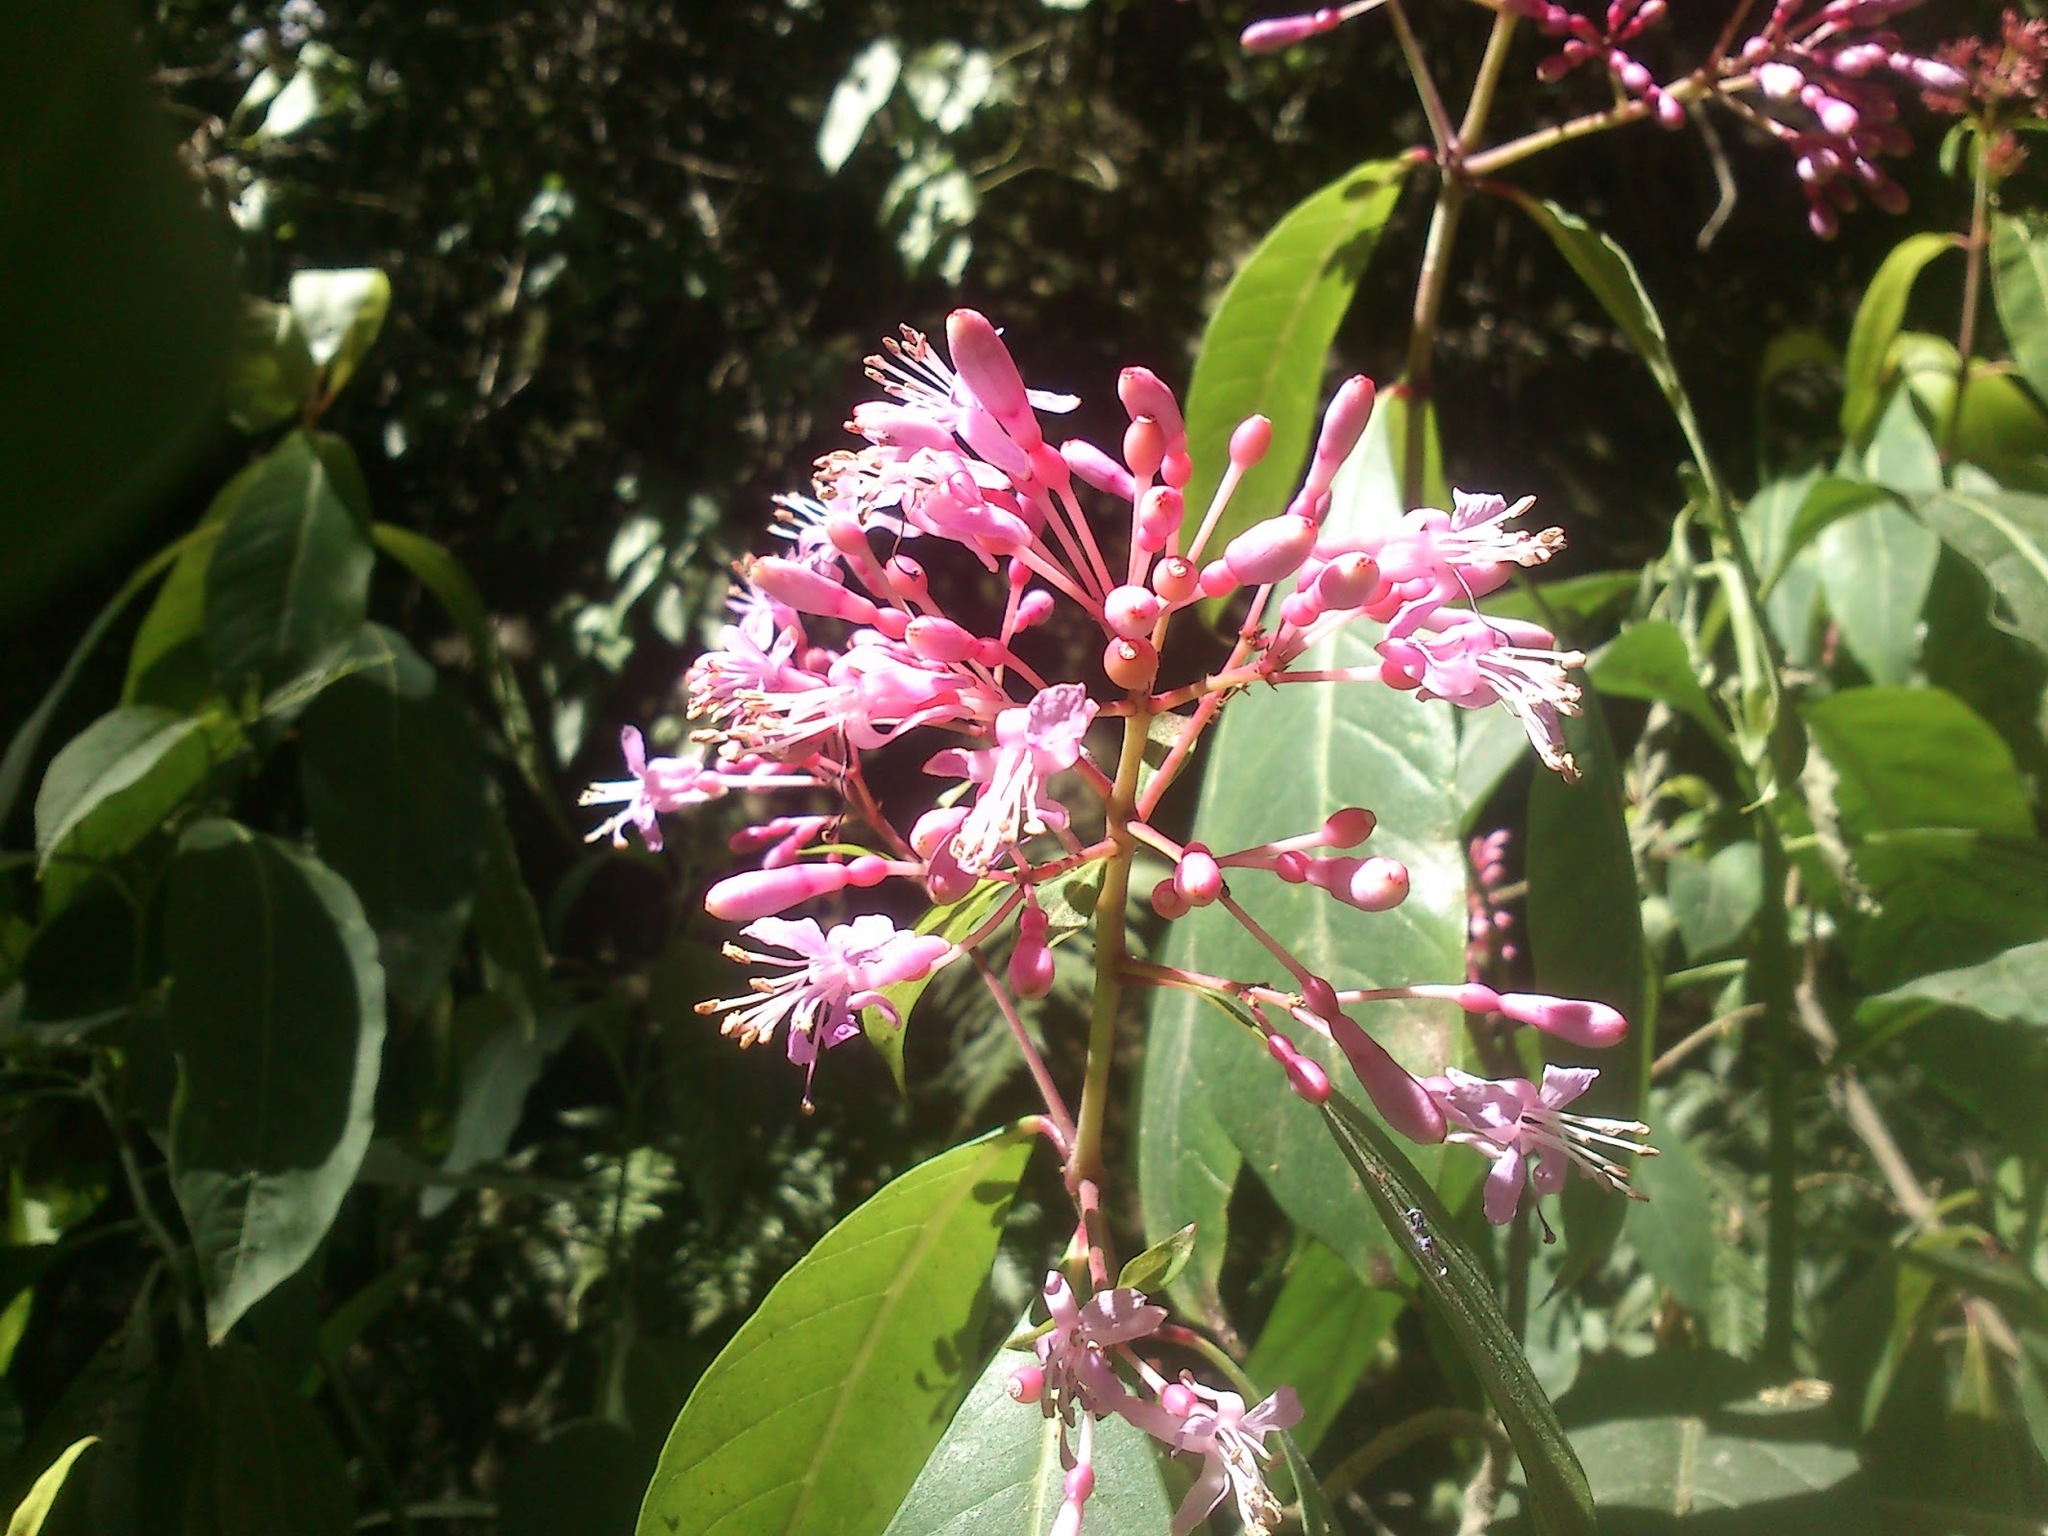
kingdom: Plantae
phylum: Tracheophyta
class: Magnoliopsida
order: Myrtales
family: Onagraceae
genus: Fuchsia
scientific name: Fuchsia arborescens
